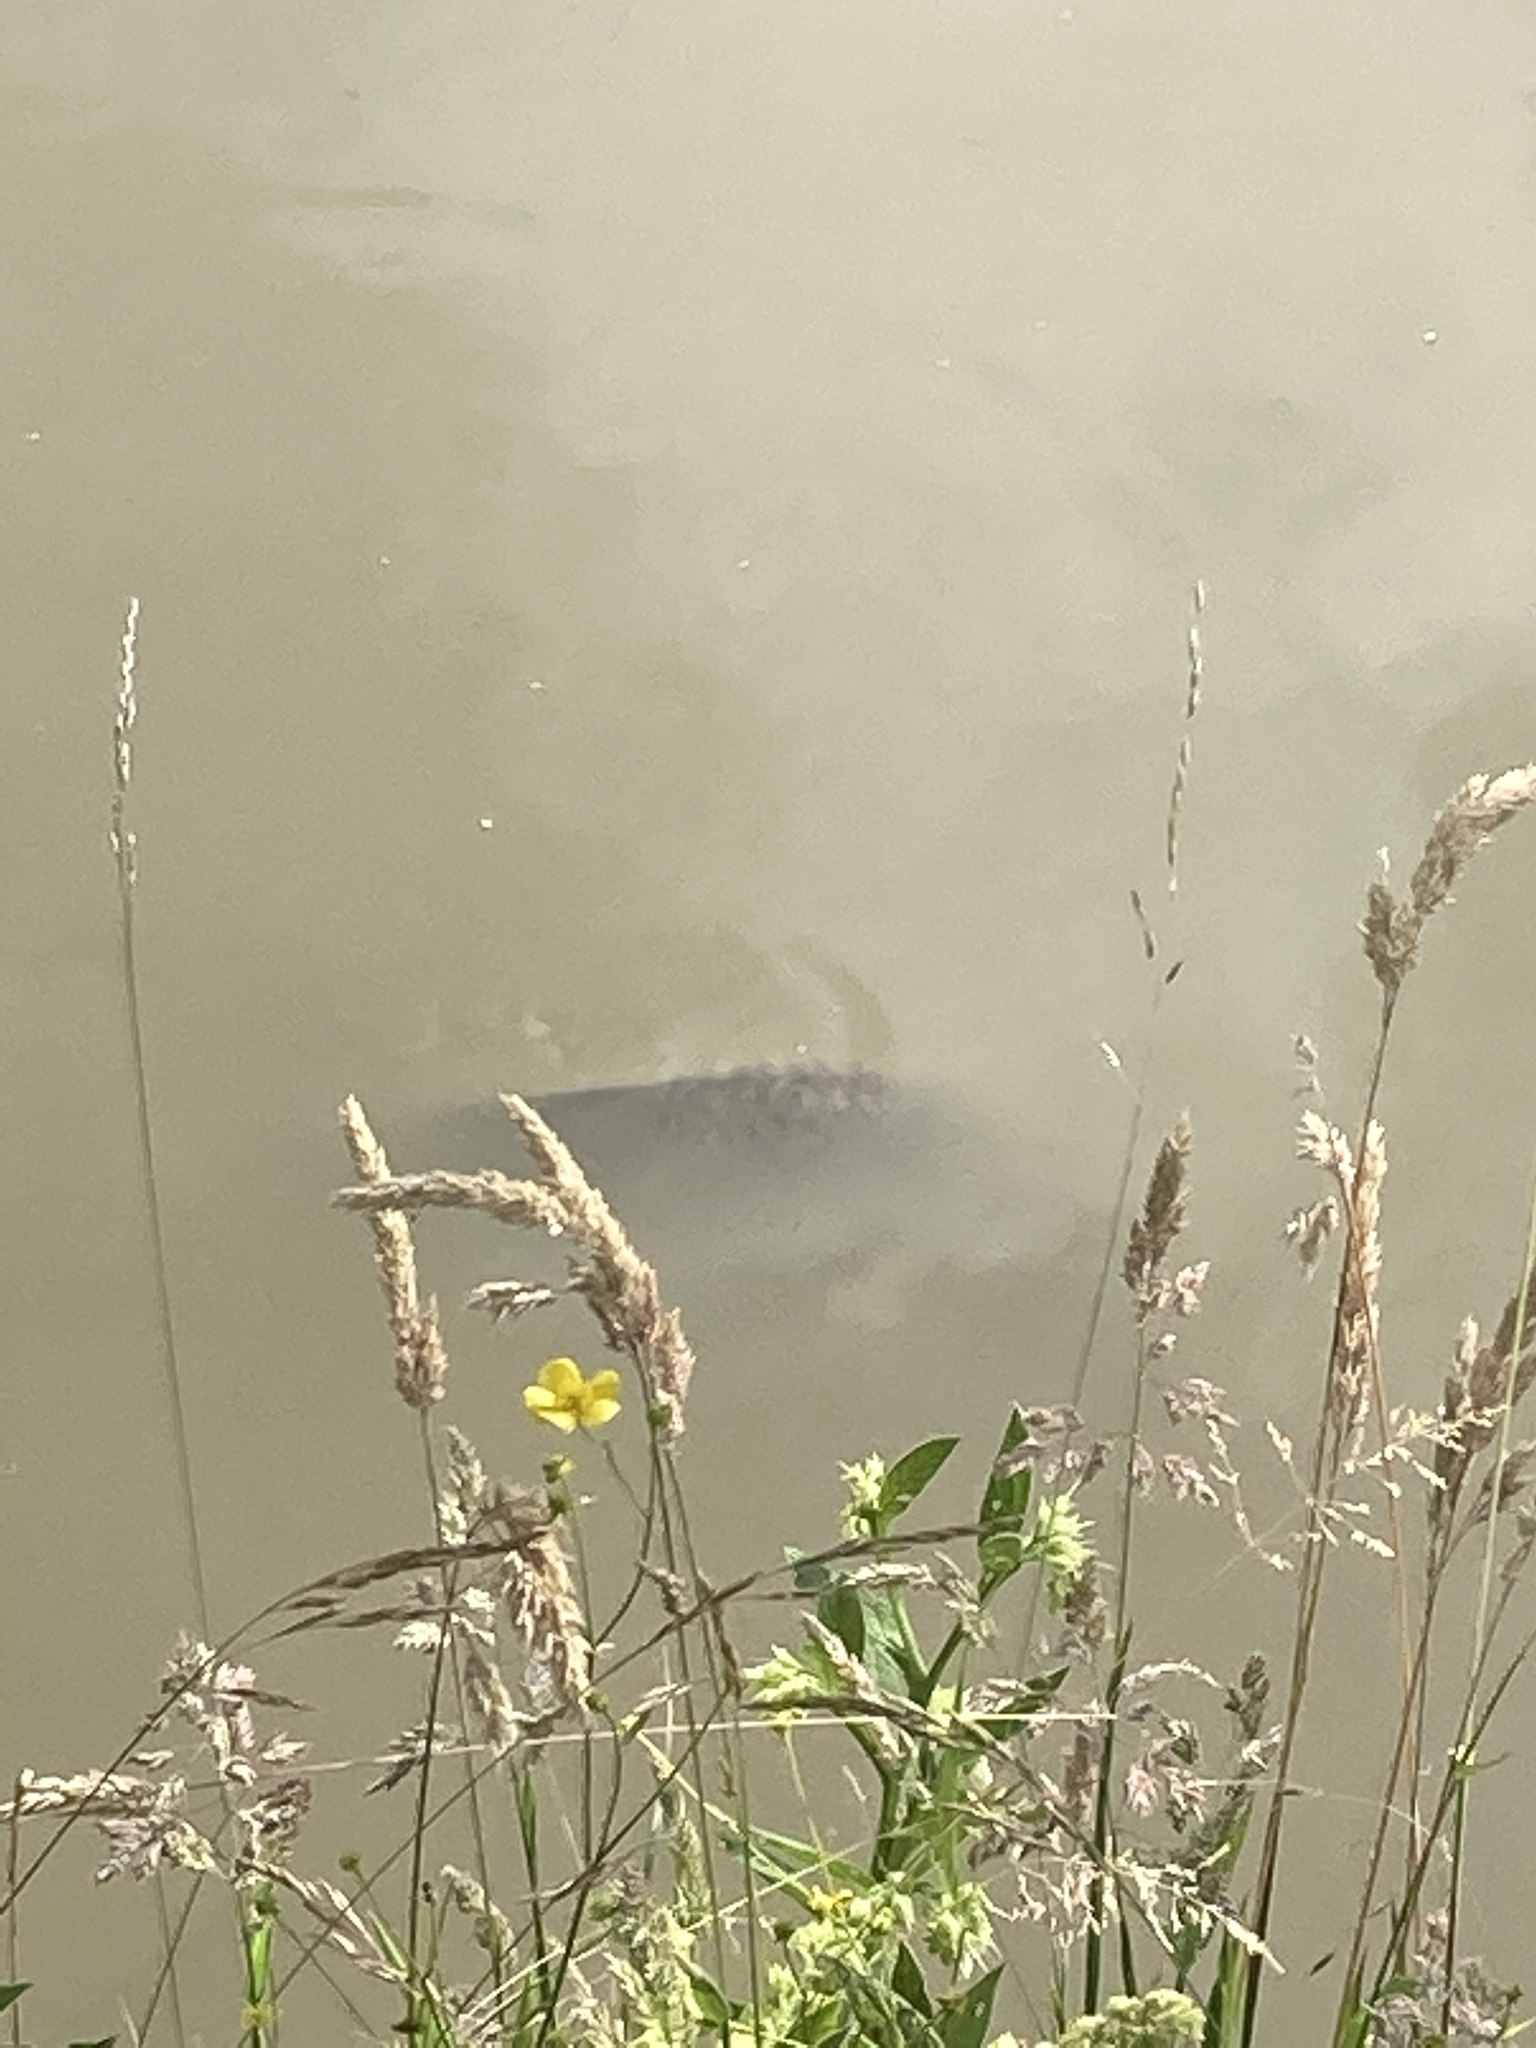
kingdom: Animalia
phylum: Chordata
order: Cypriniformes
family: Cyprinidae
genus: Cyprinus
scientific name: Cyprinus carpio
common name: Common carp
